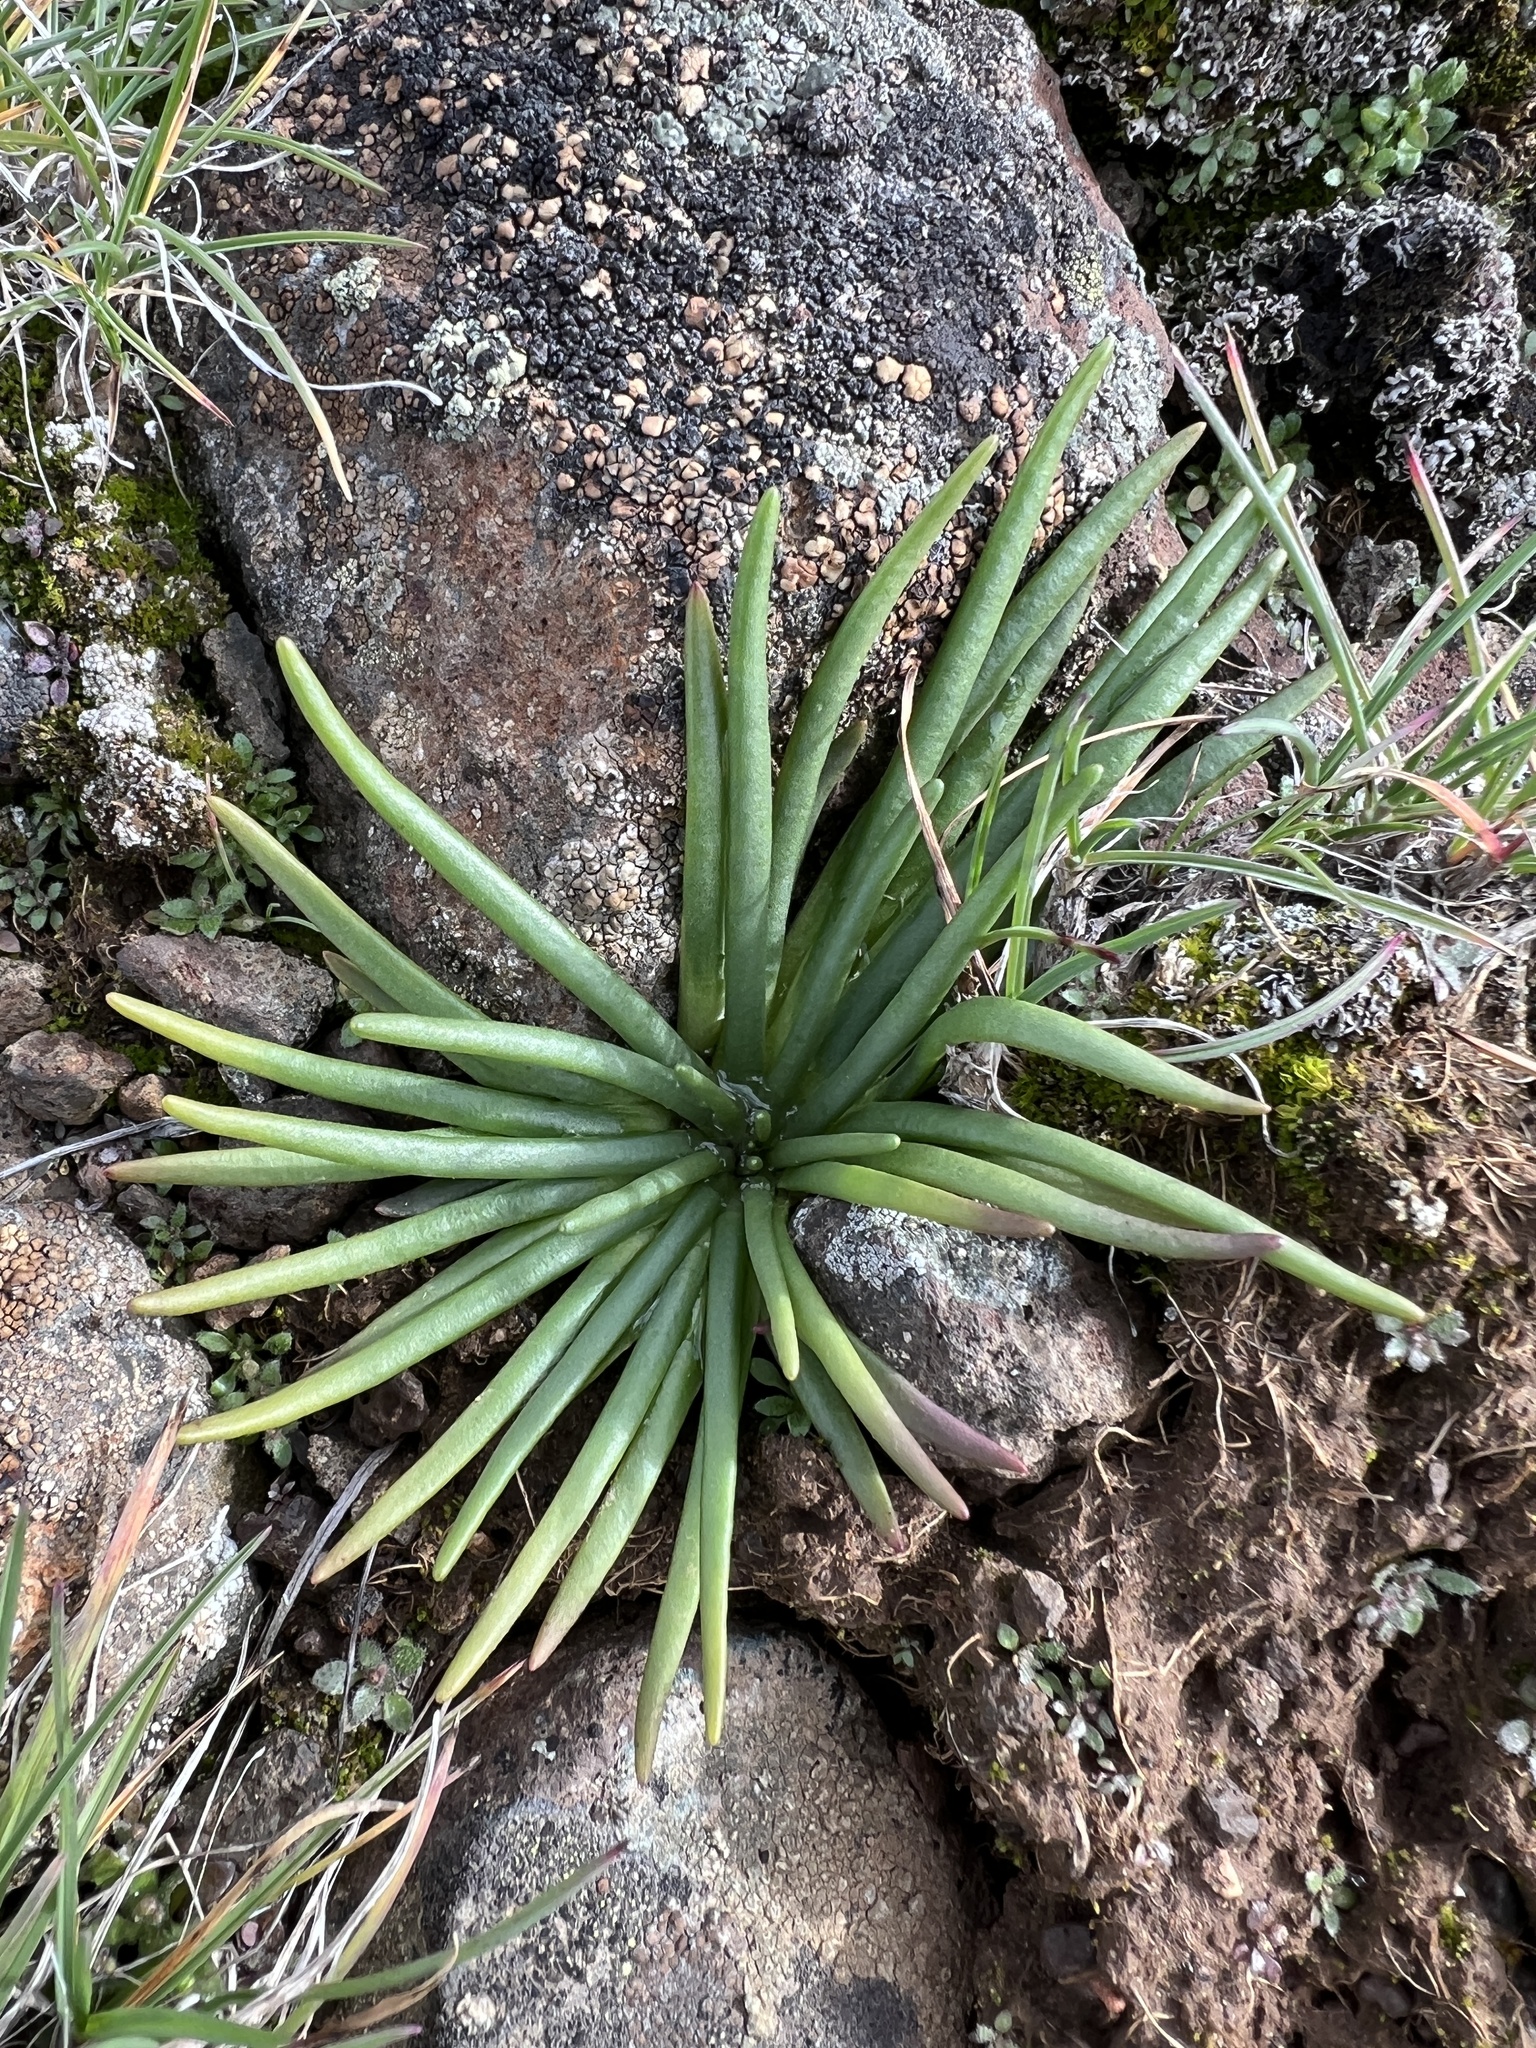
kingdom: Plantae
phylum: Tracheophyta
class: Magnoliopsida
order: Caryophyllales
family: Montiaceae
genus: Lewisia
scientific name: Lewisia rediviva
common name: Bitter-root
